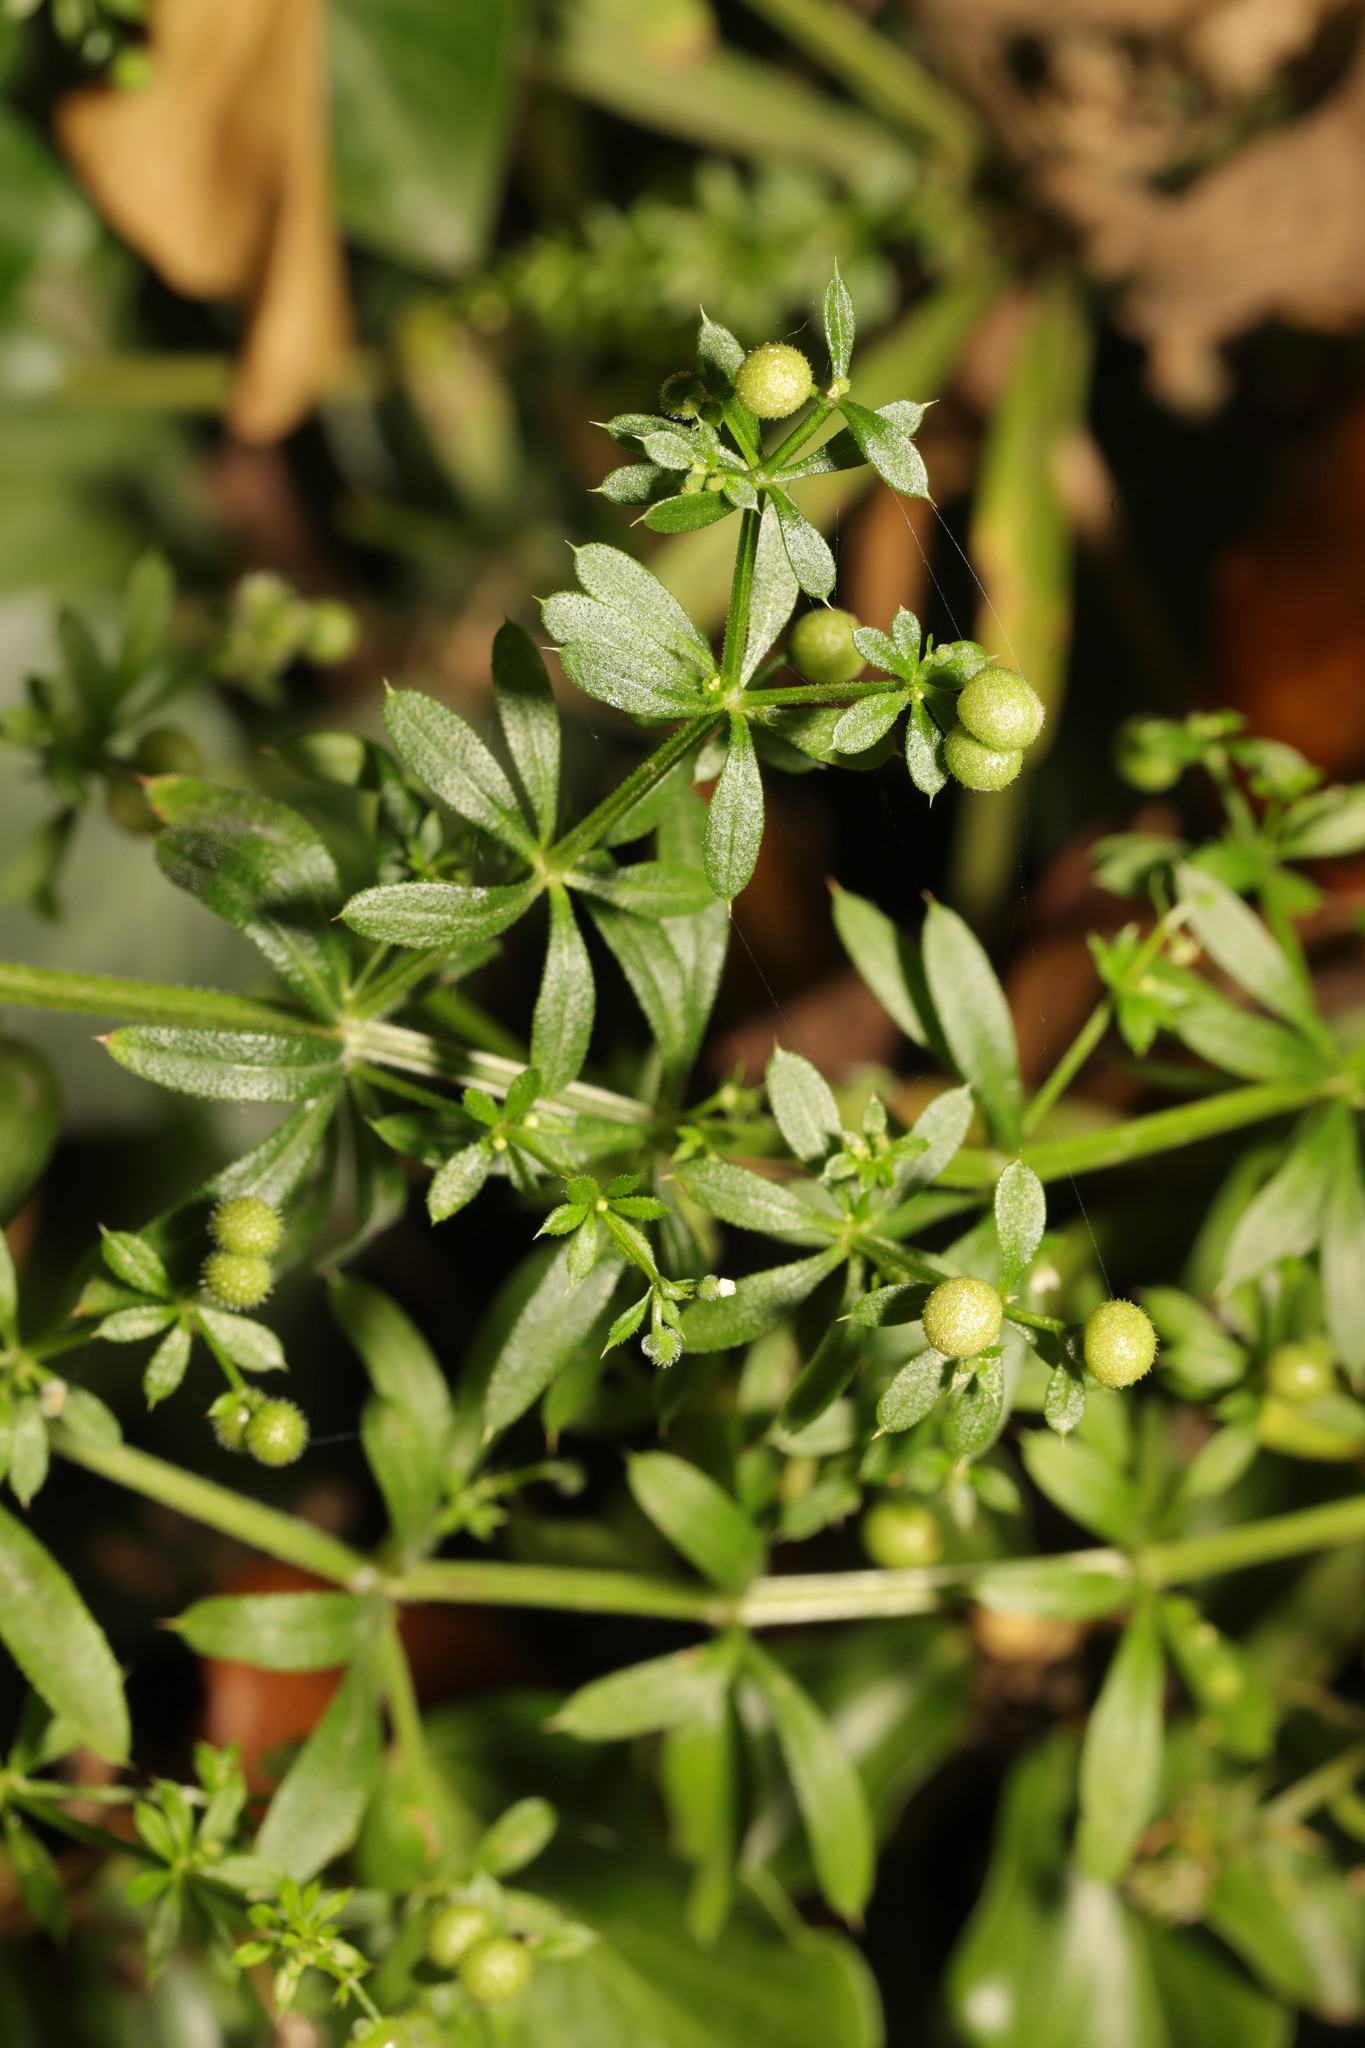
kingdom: Plantae
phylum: Tracheophyta
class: Magnoliopsida
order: Gentianales
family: Rubiaceae
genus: Galium
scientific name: Galium aparine
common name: Cleavers
